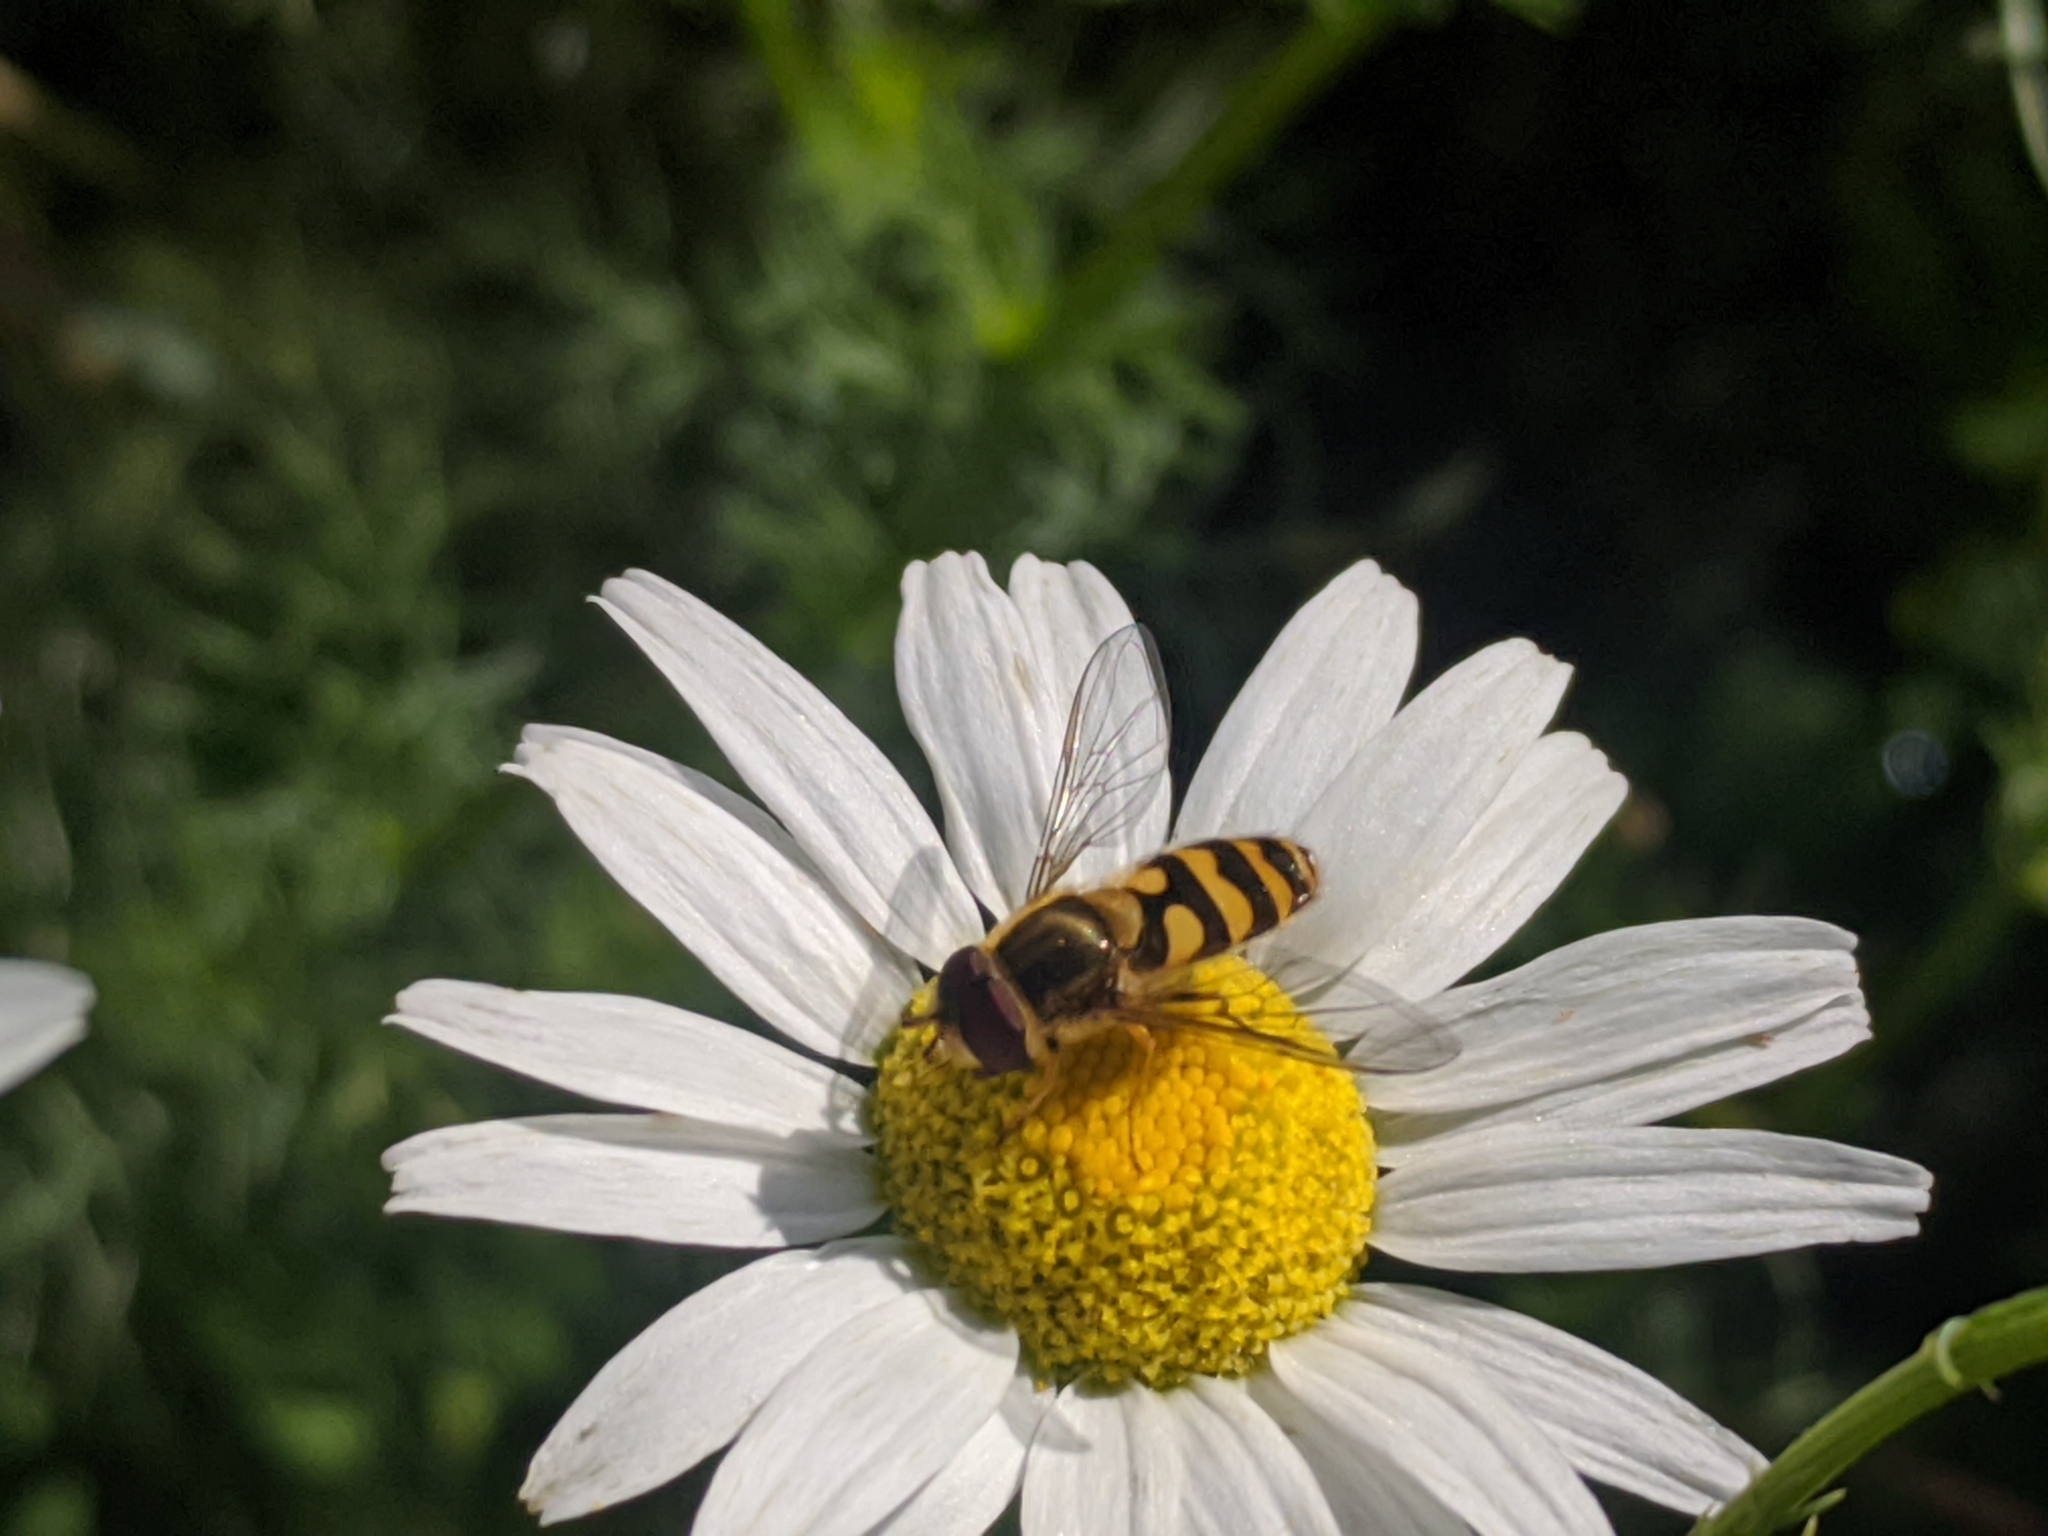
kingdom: Animalia
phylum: Arthropoda
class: Insecta
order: Diptera
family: Syrphidae
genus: Syrphus
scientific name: Syrphus
